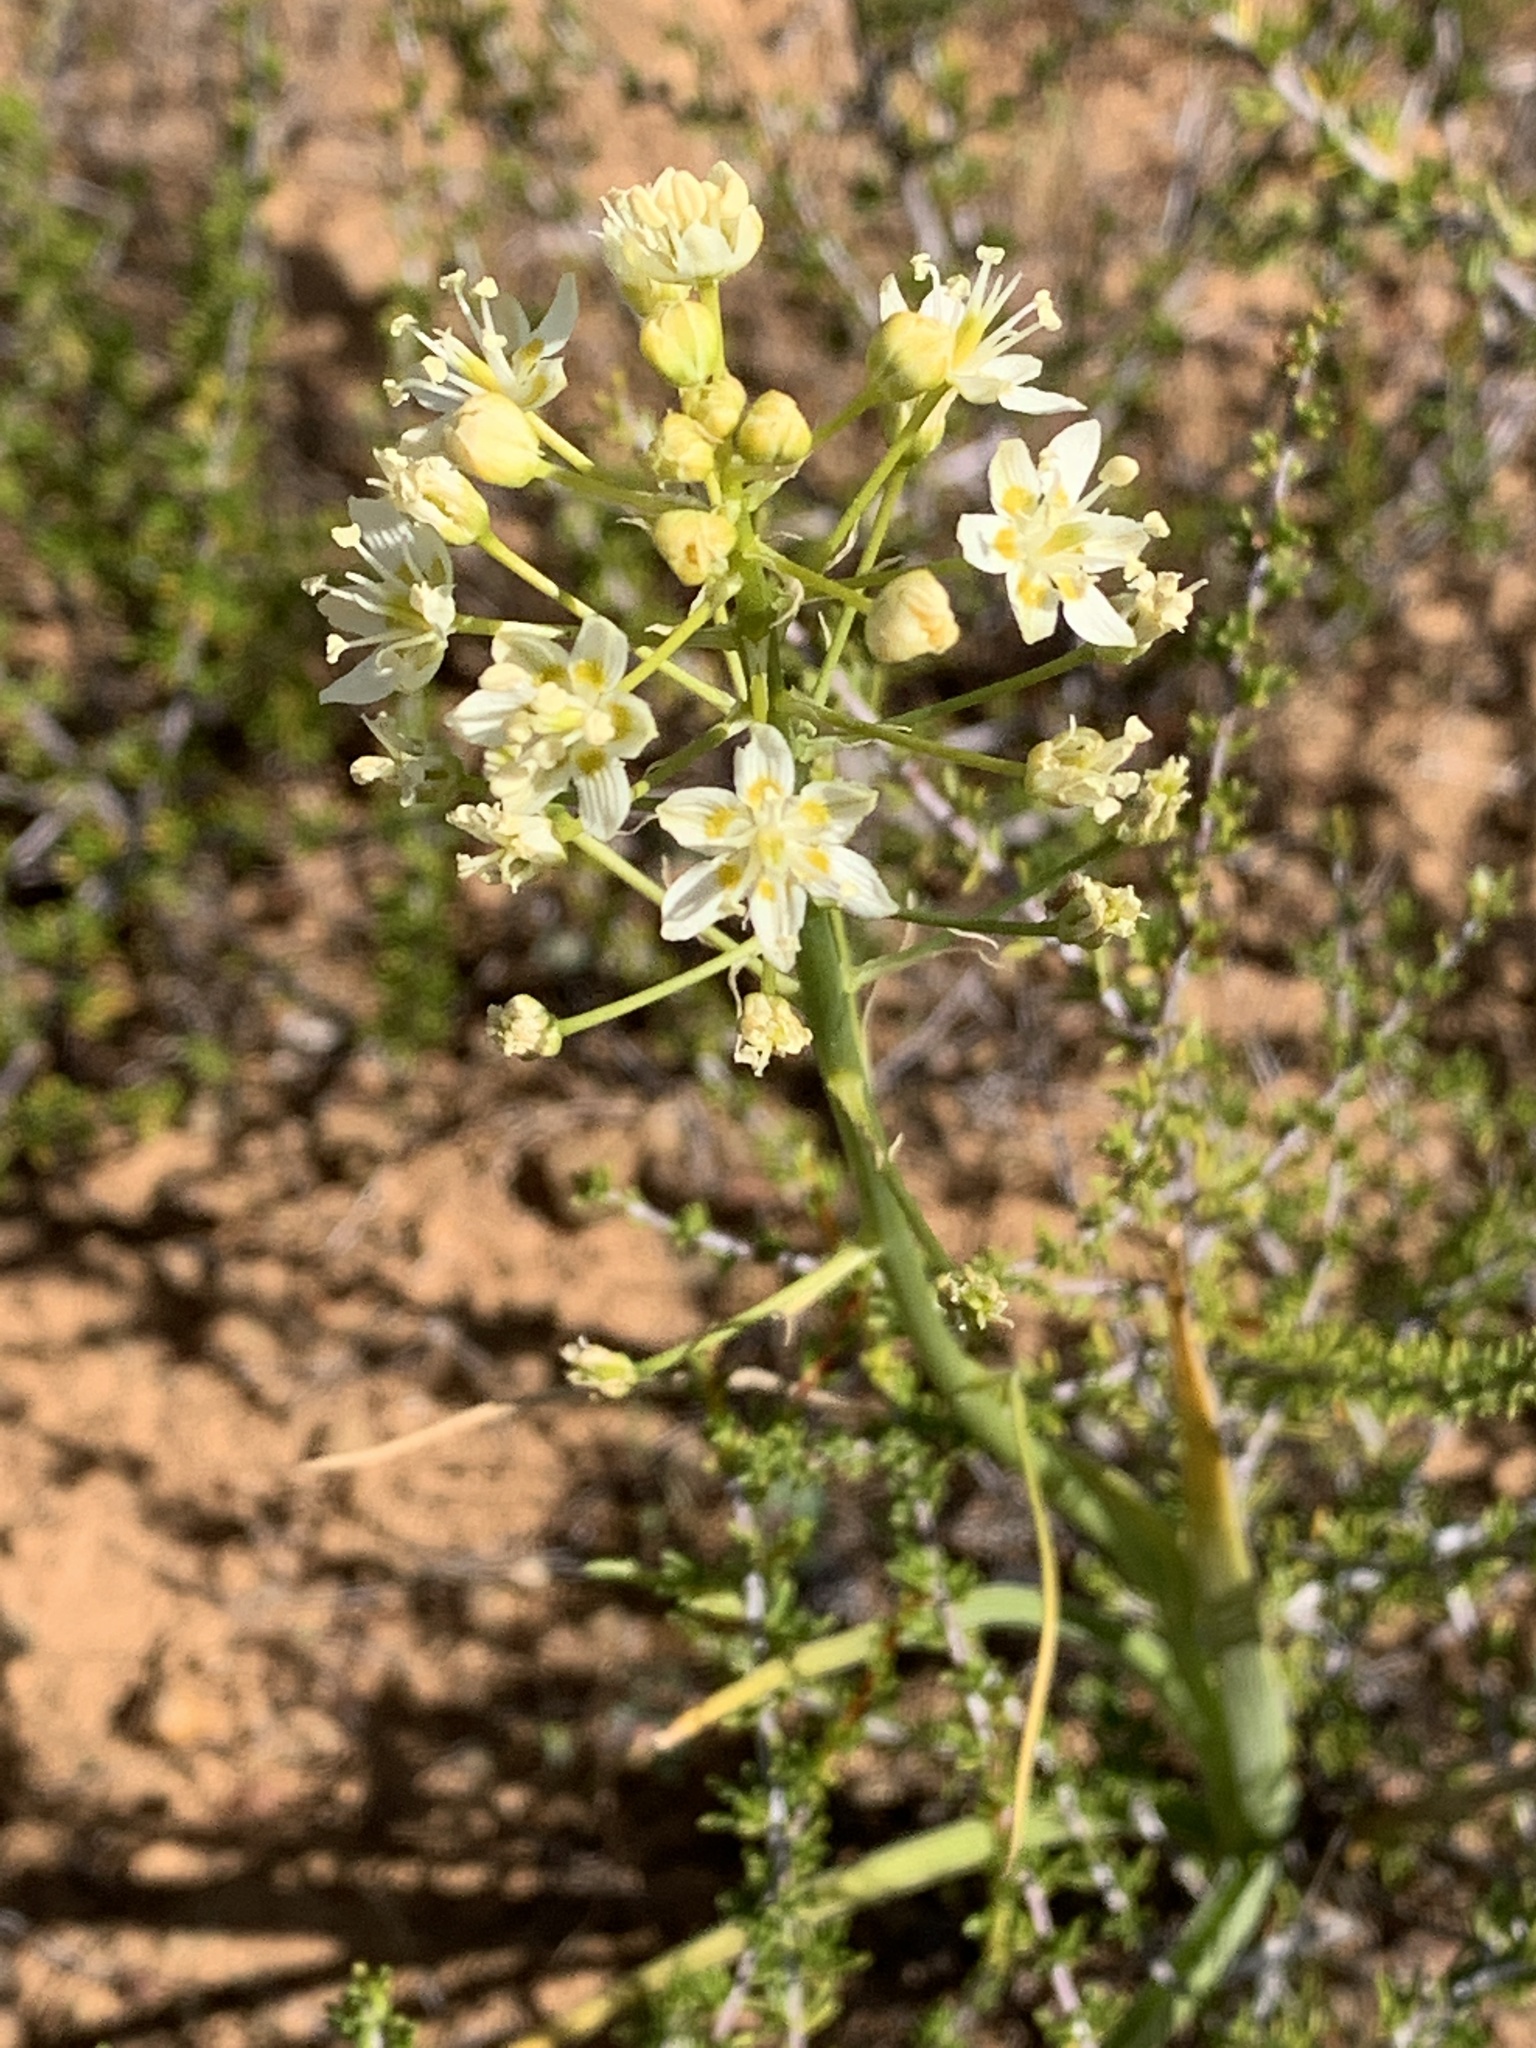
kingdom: Plantae
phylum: Tracheophyta
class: Liliopsida
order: Liliales
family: Melanthiaceae
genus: Toxicoscordion
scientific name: Toxicoscordion fremontii
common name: Fremont's death camas
